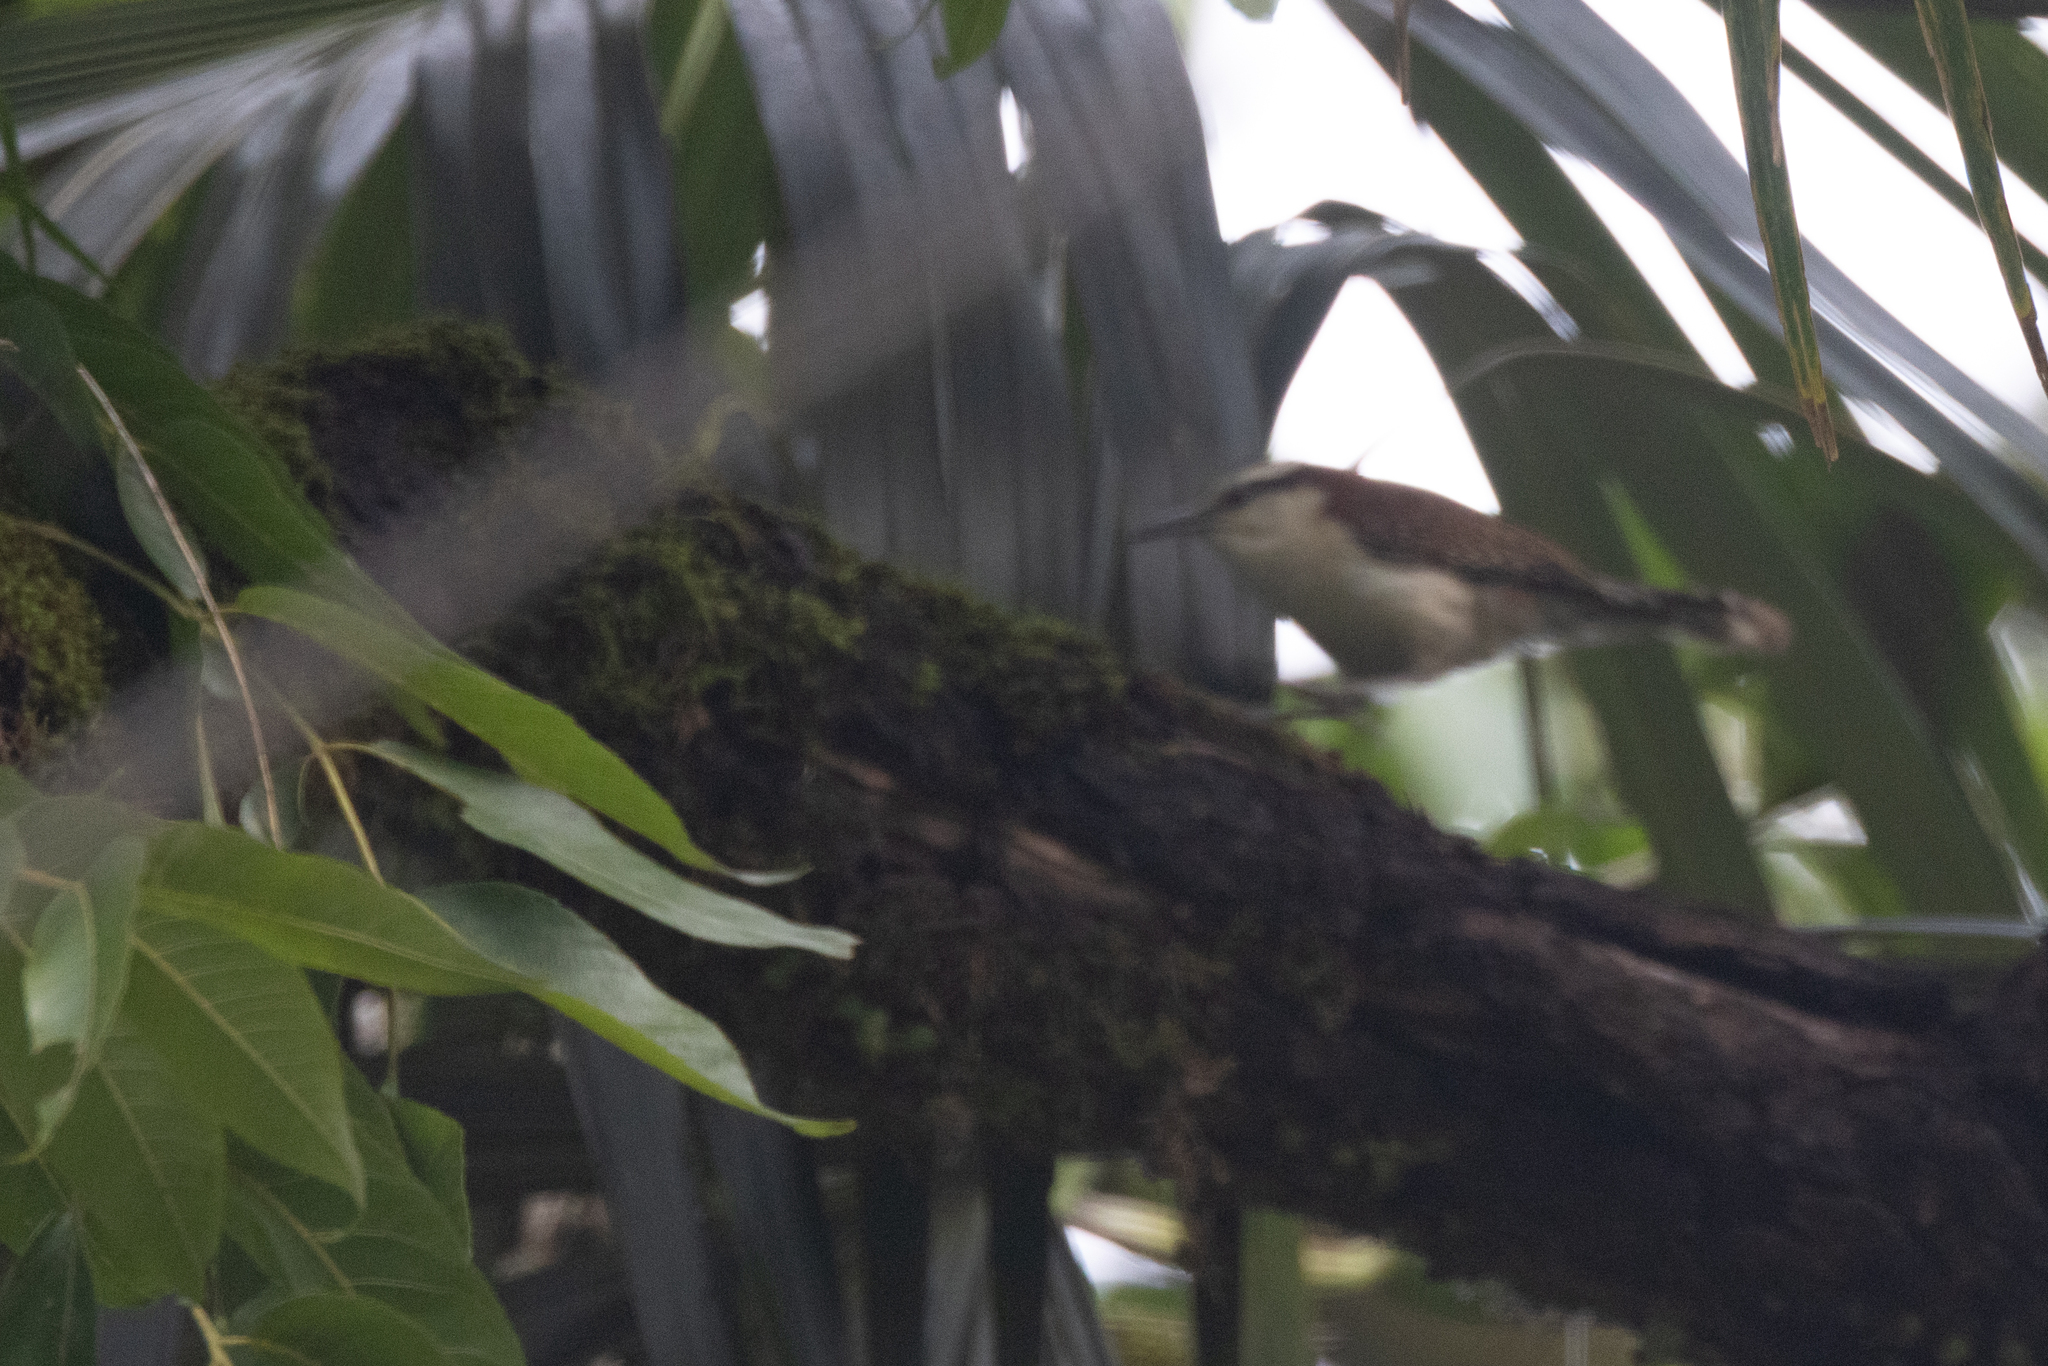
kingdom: Animalia
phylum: Chordata
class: Aves
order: Passeriformes
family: Troglodytidae
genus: Campylorhynchus
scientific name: Campylorhynchus rufinucha
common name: Rufous-naped wren
